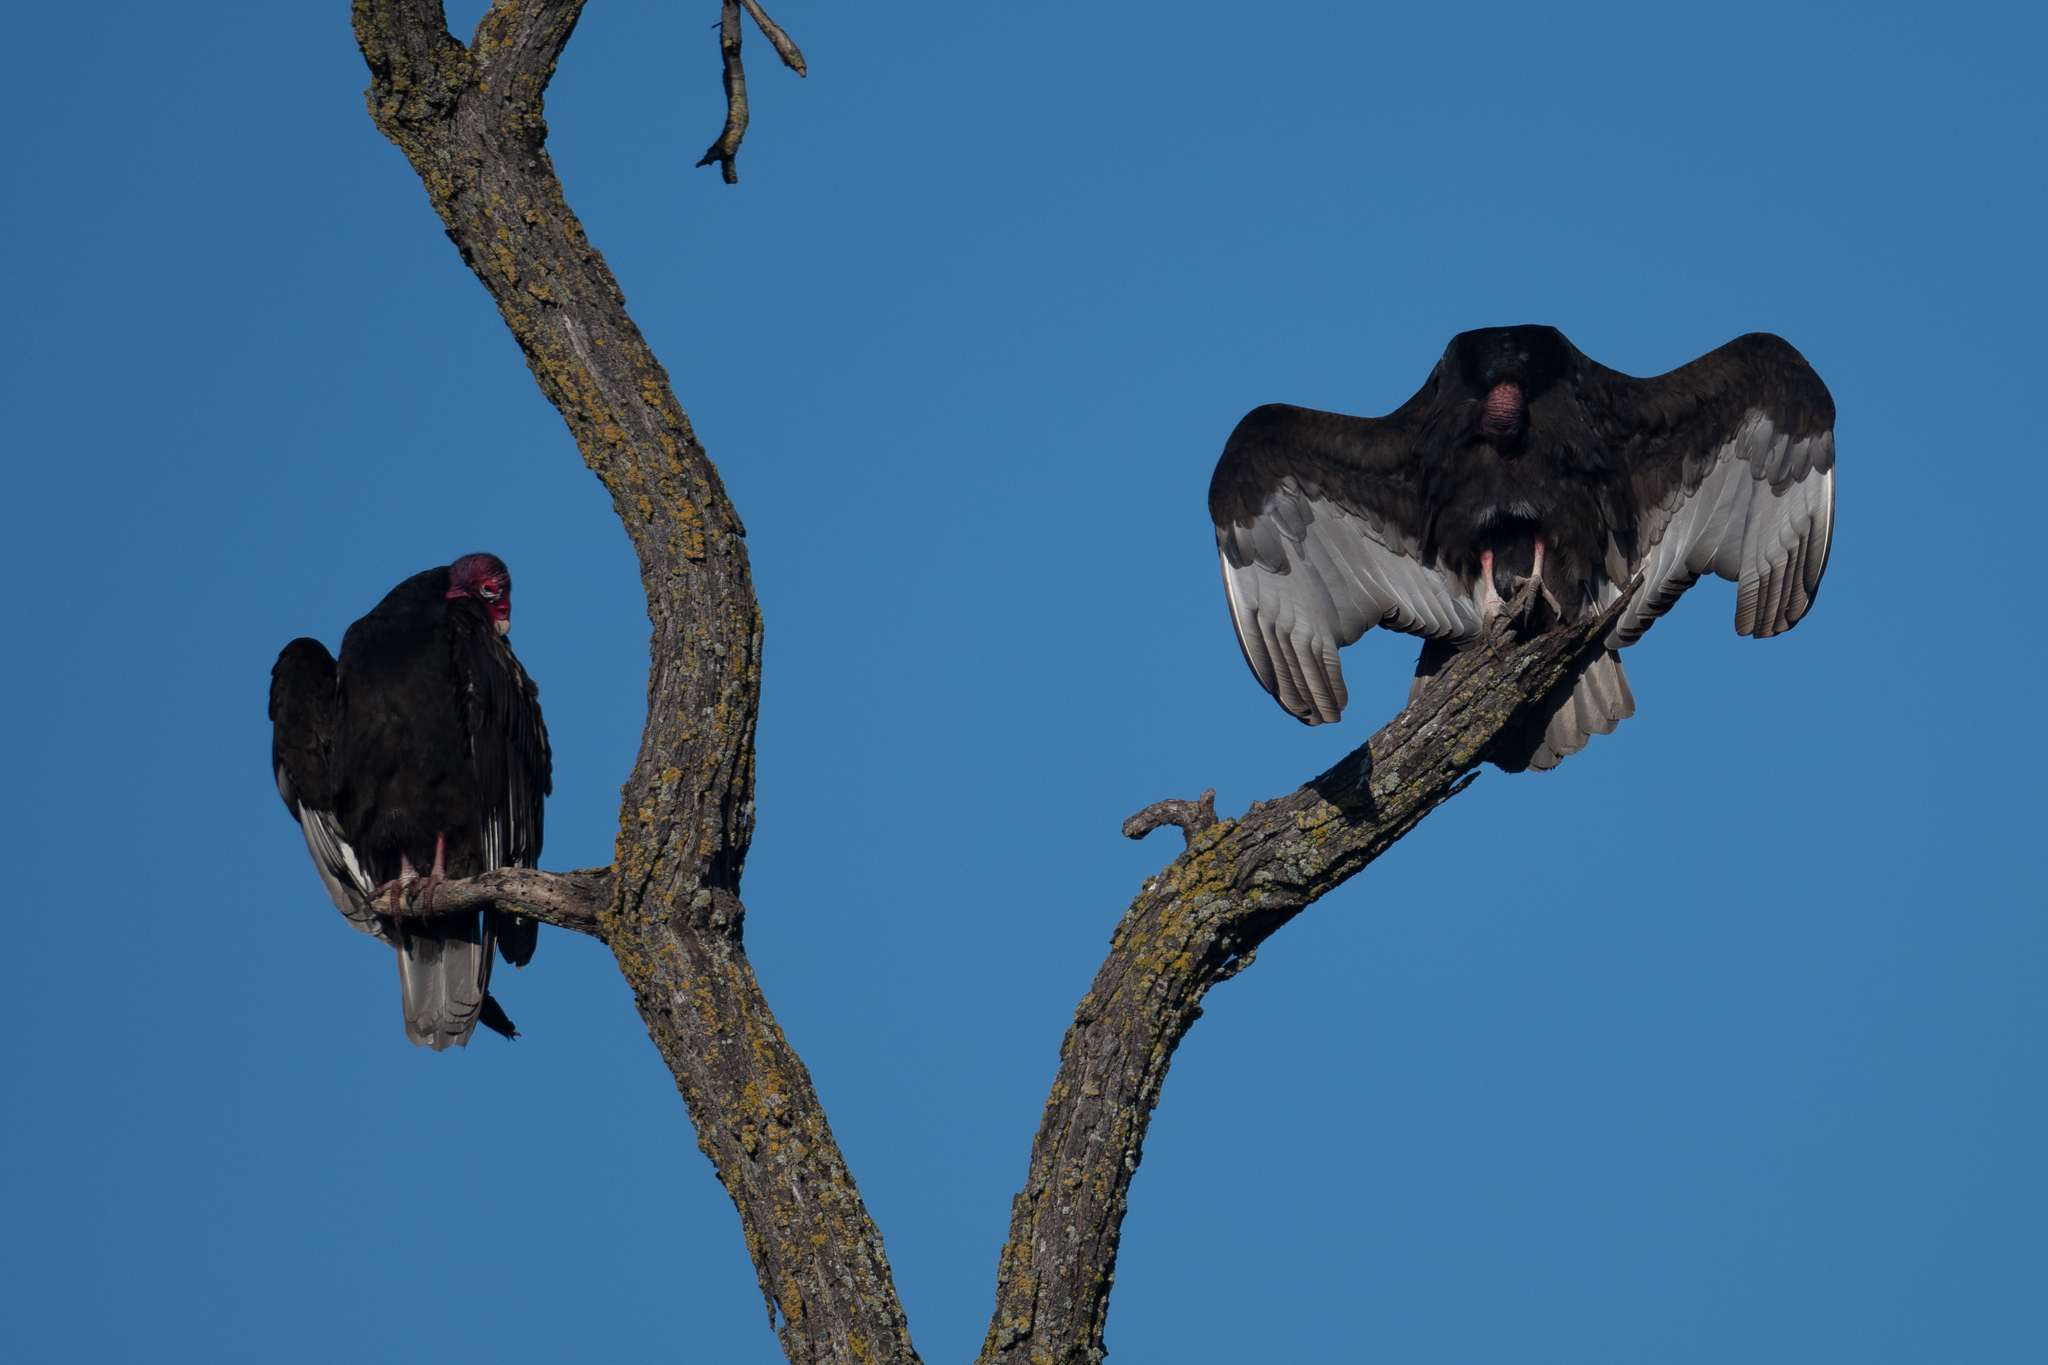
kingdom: Animalia
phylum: Chordata
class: Aves
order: Accipitriformes
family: Cathartidae
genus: Cathartes
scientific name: Cathartes aura
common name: Turkey vulture
